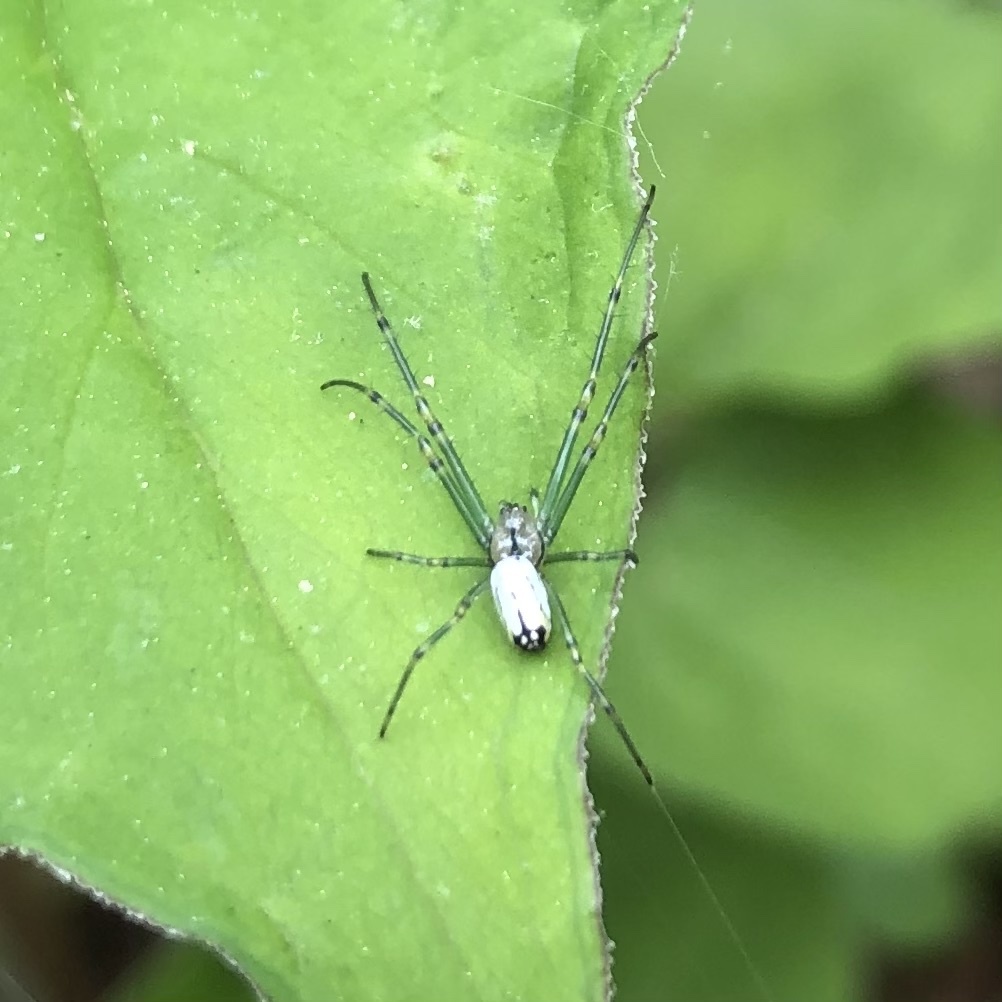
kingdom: Animalia
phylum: Arthropoda
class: Arachnida
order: Araneae
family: Tetragnathidae
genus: Leucauge
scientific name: Leucauge venusta
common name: Longjawed orb weavers
